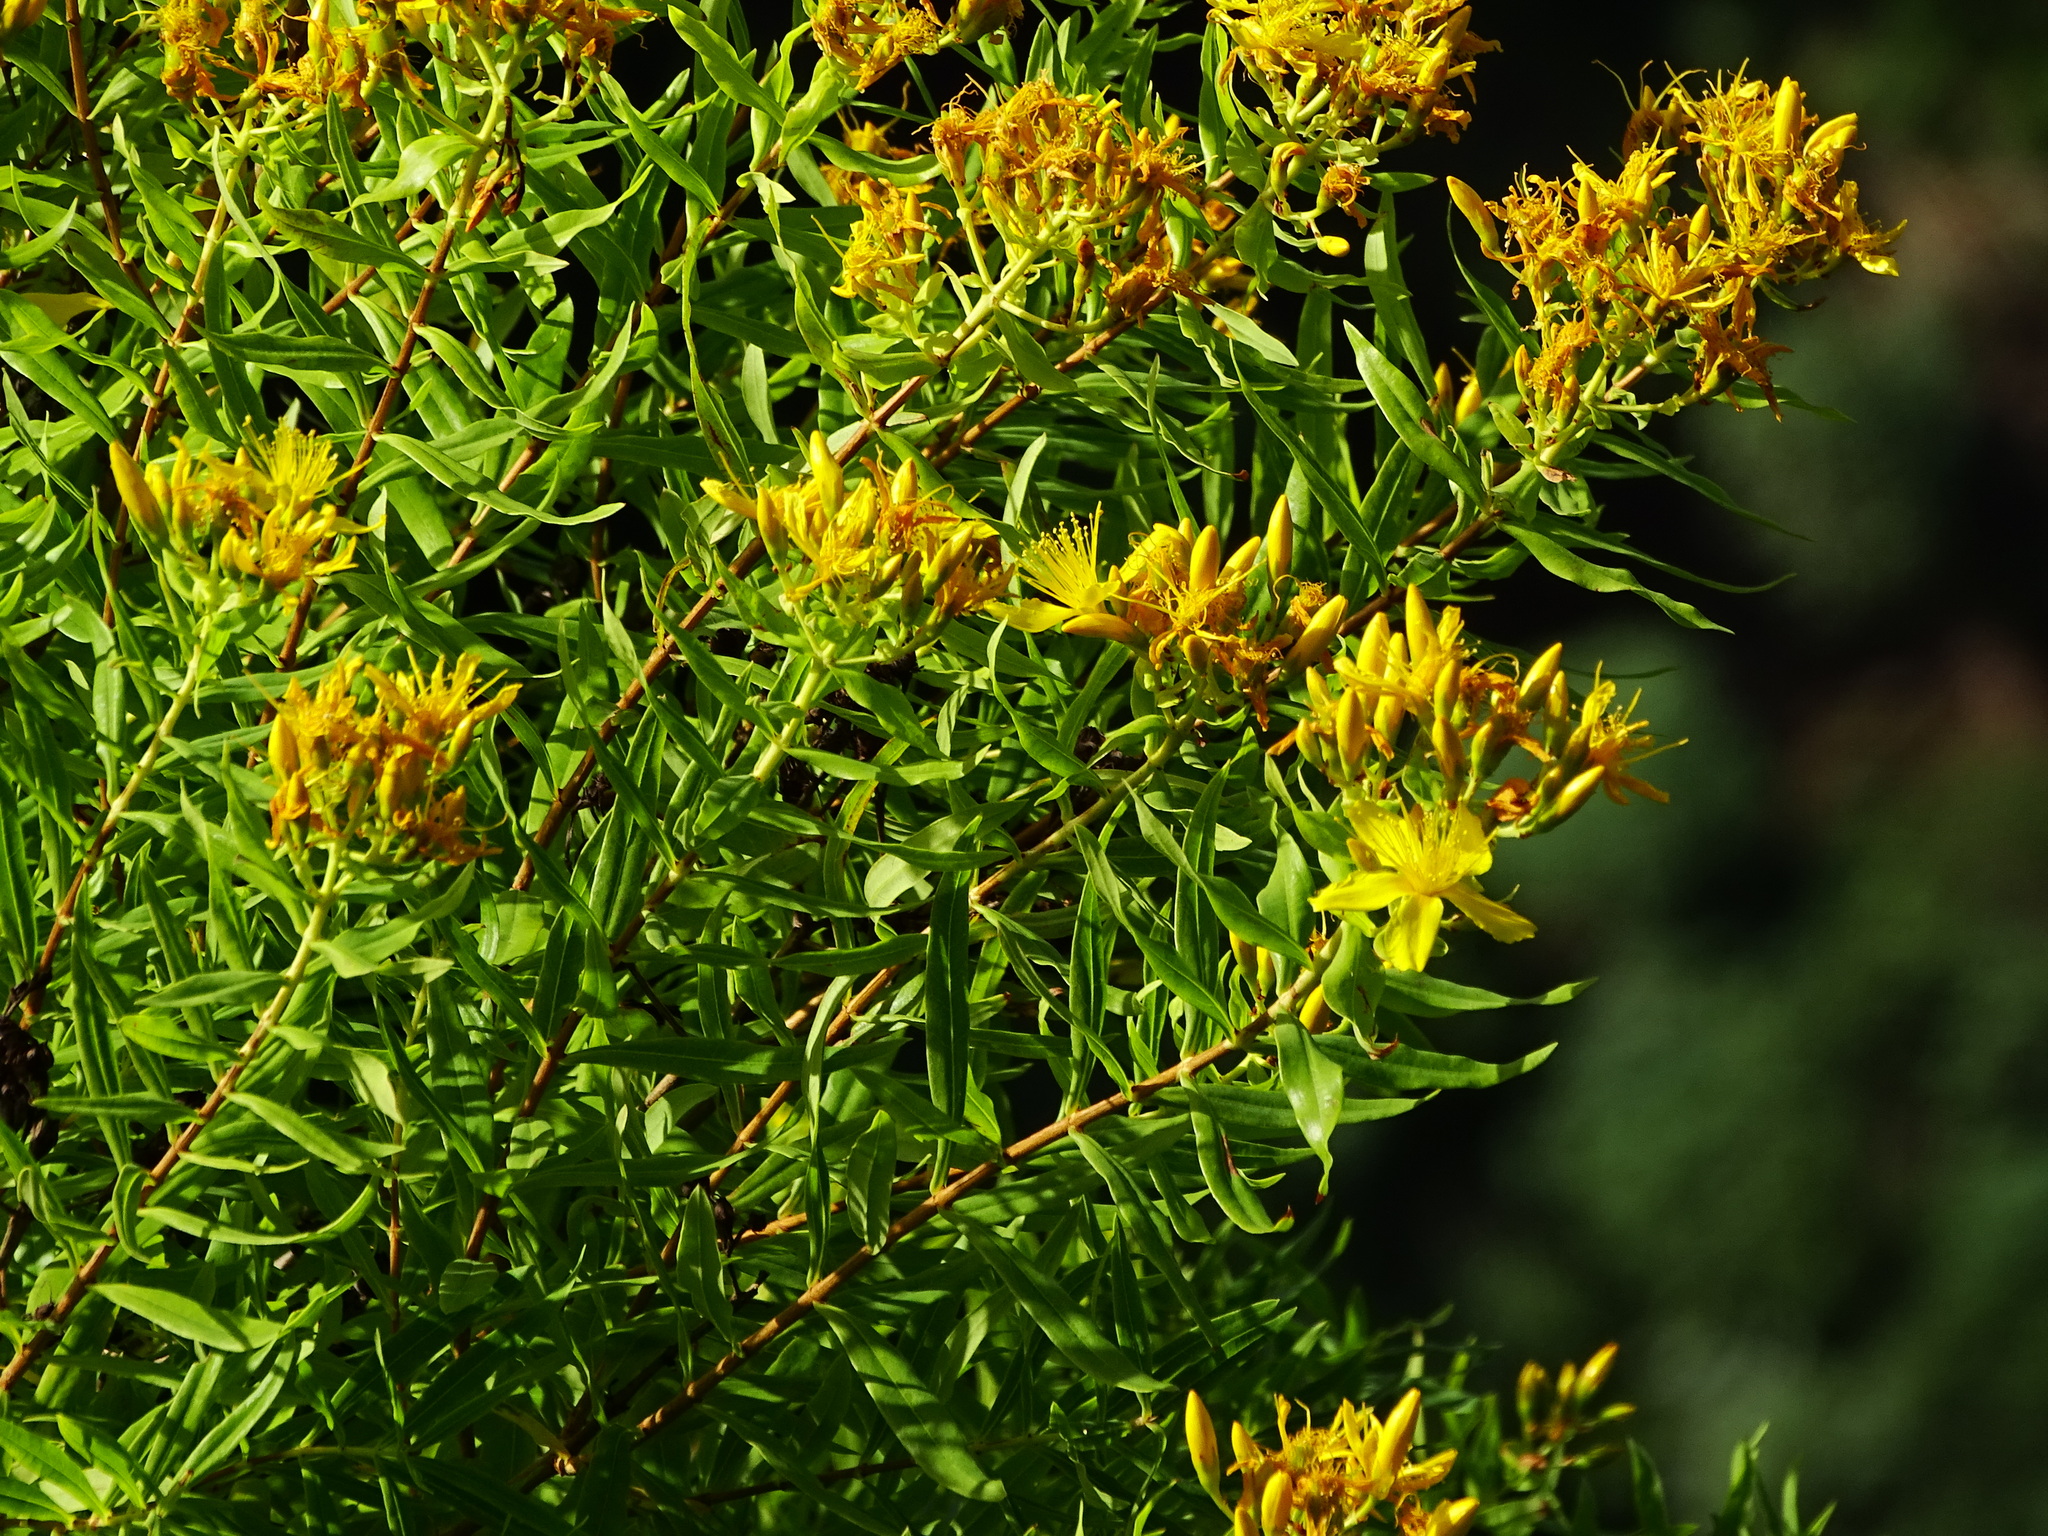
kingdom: Plantae
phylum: Tracheophyta
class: Magnoliopsida
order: Malpighiales
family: Hypericaceae
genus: Hypericum
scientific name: Hypericum canariense
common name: Canary island st. johnswort
